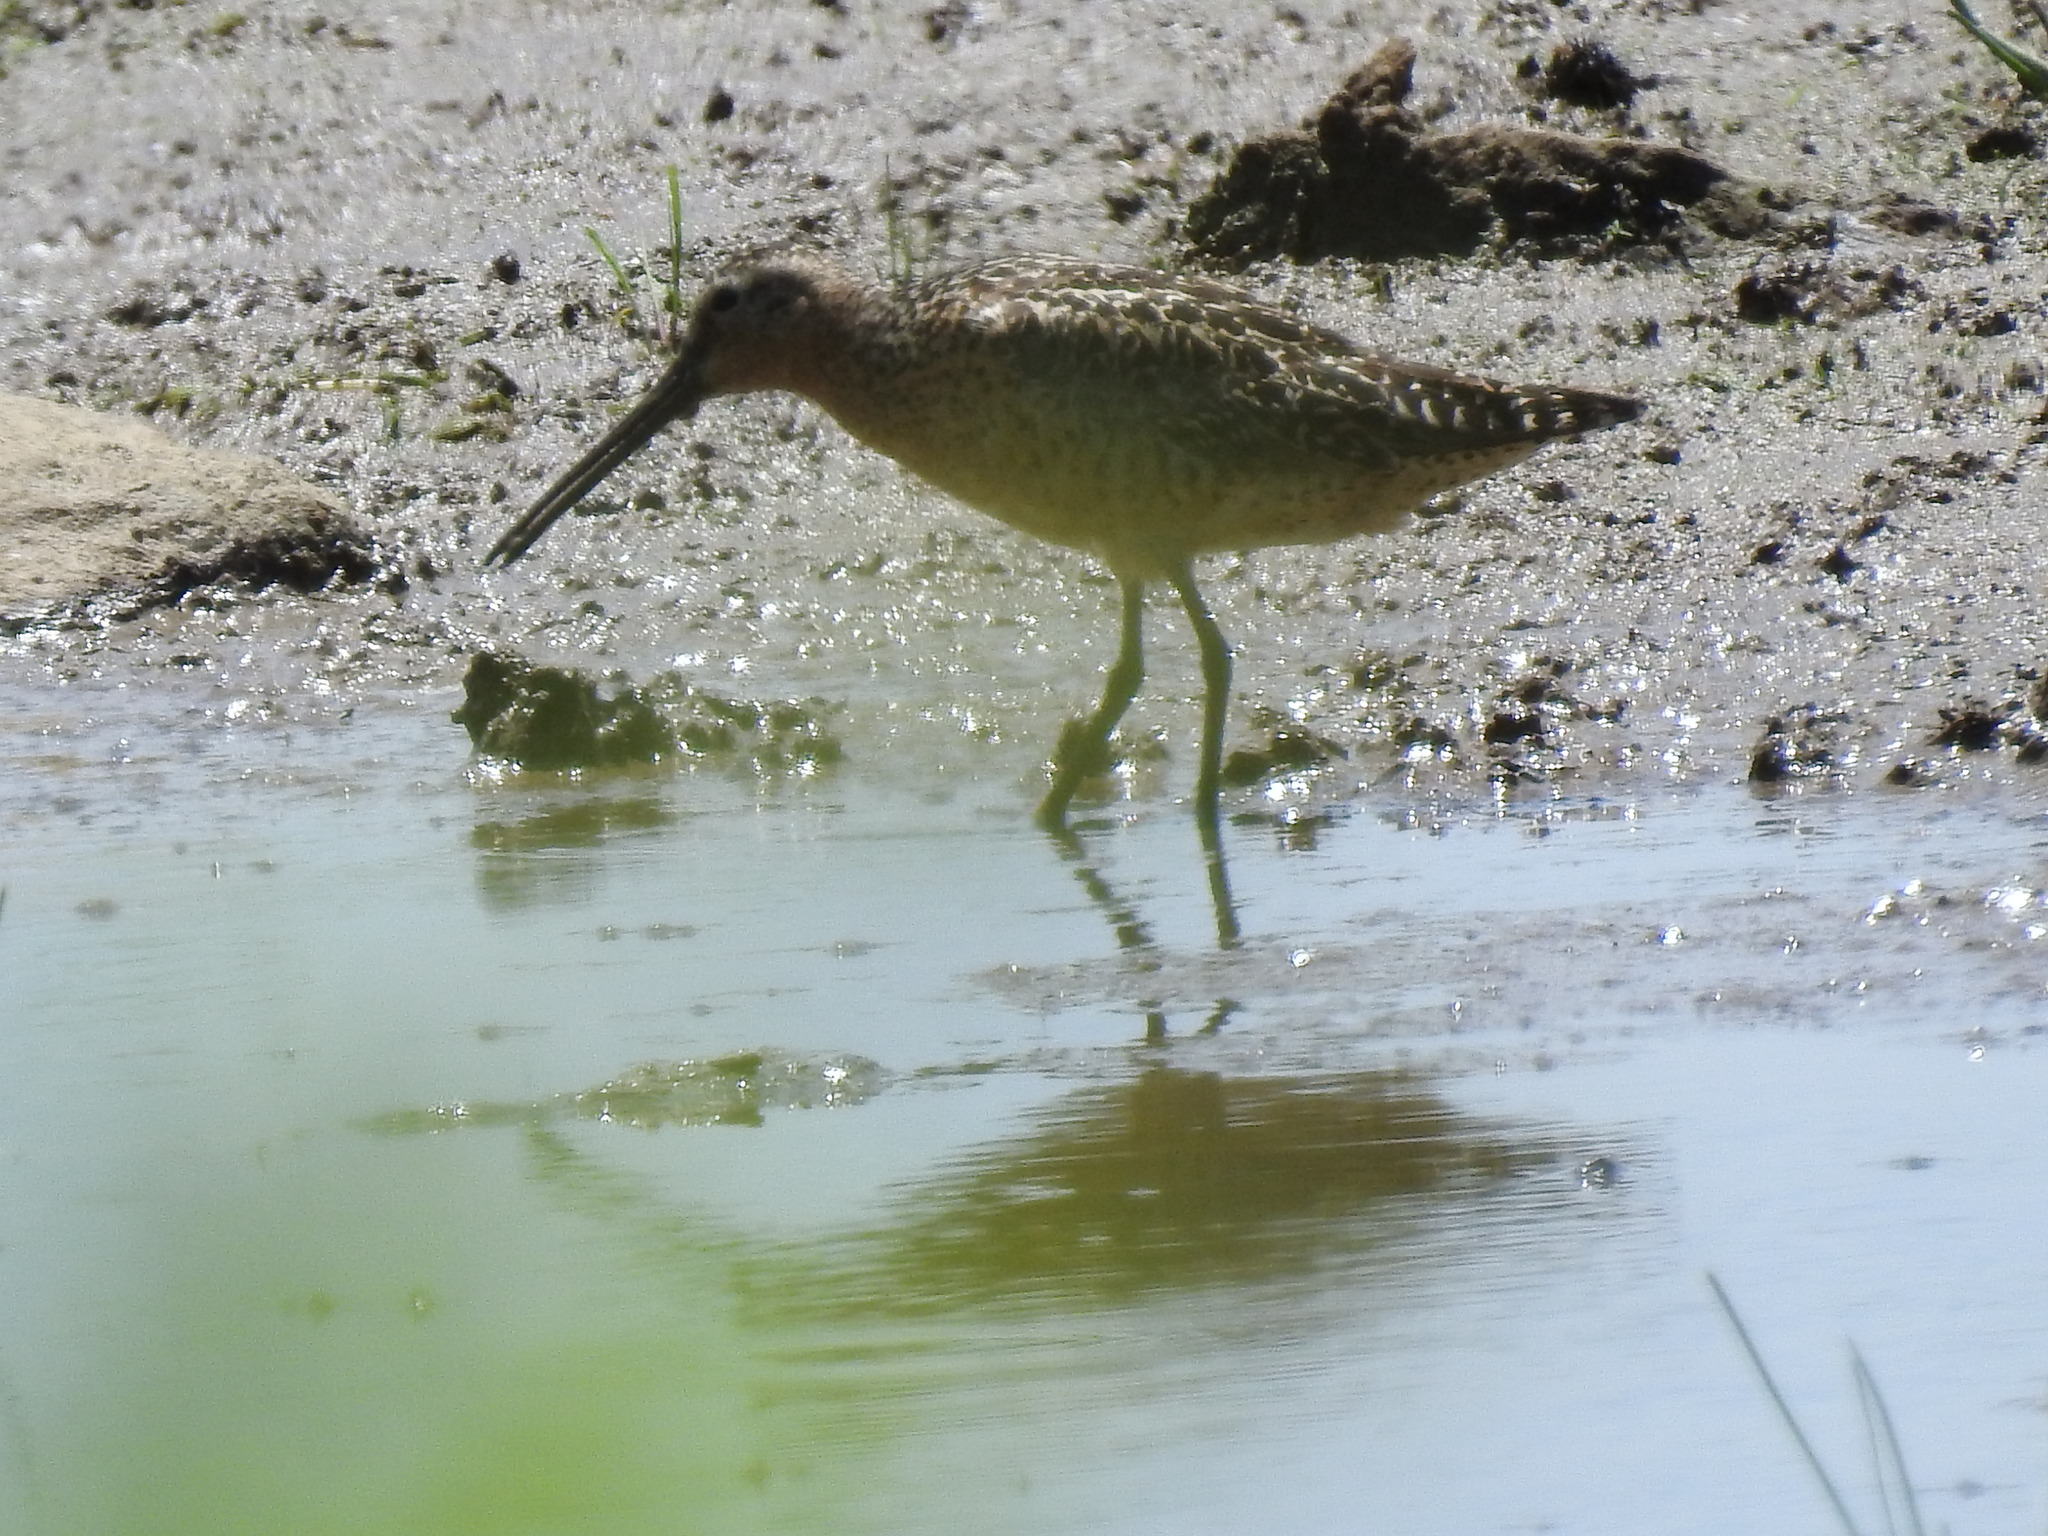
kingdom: Animalia
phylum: Chordata
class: Aves
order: Charadriiformes
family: Scolopacidae
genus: Limnodromus
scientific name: Limnodromus griseus
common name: Short-billed dowitcher
